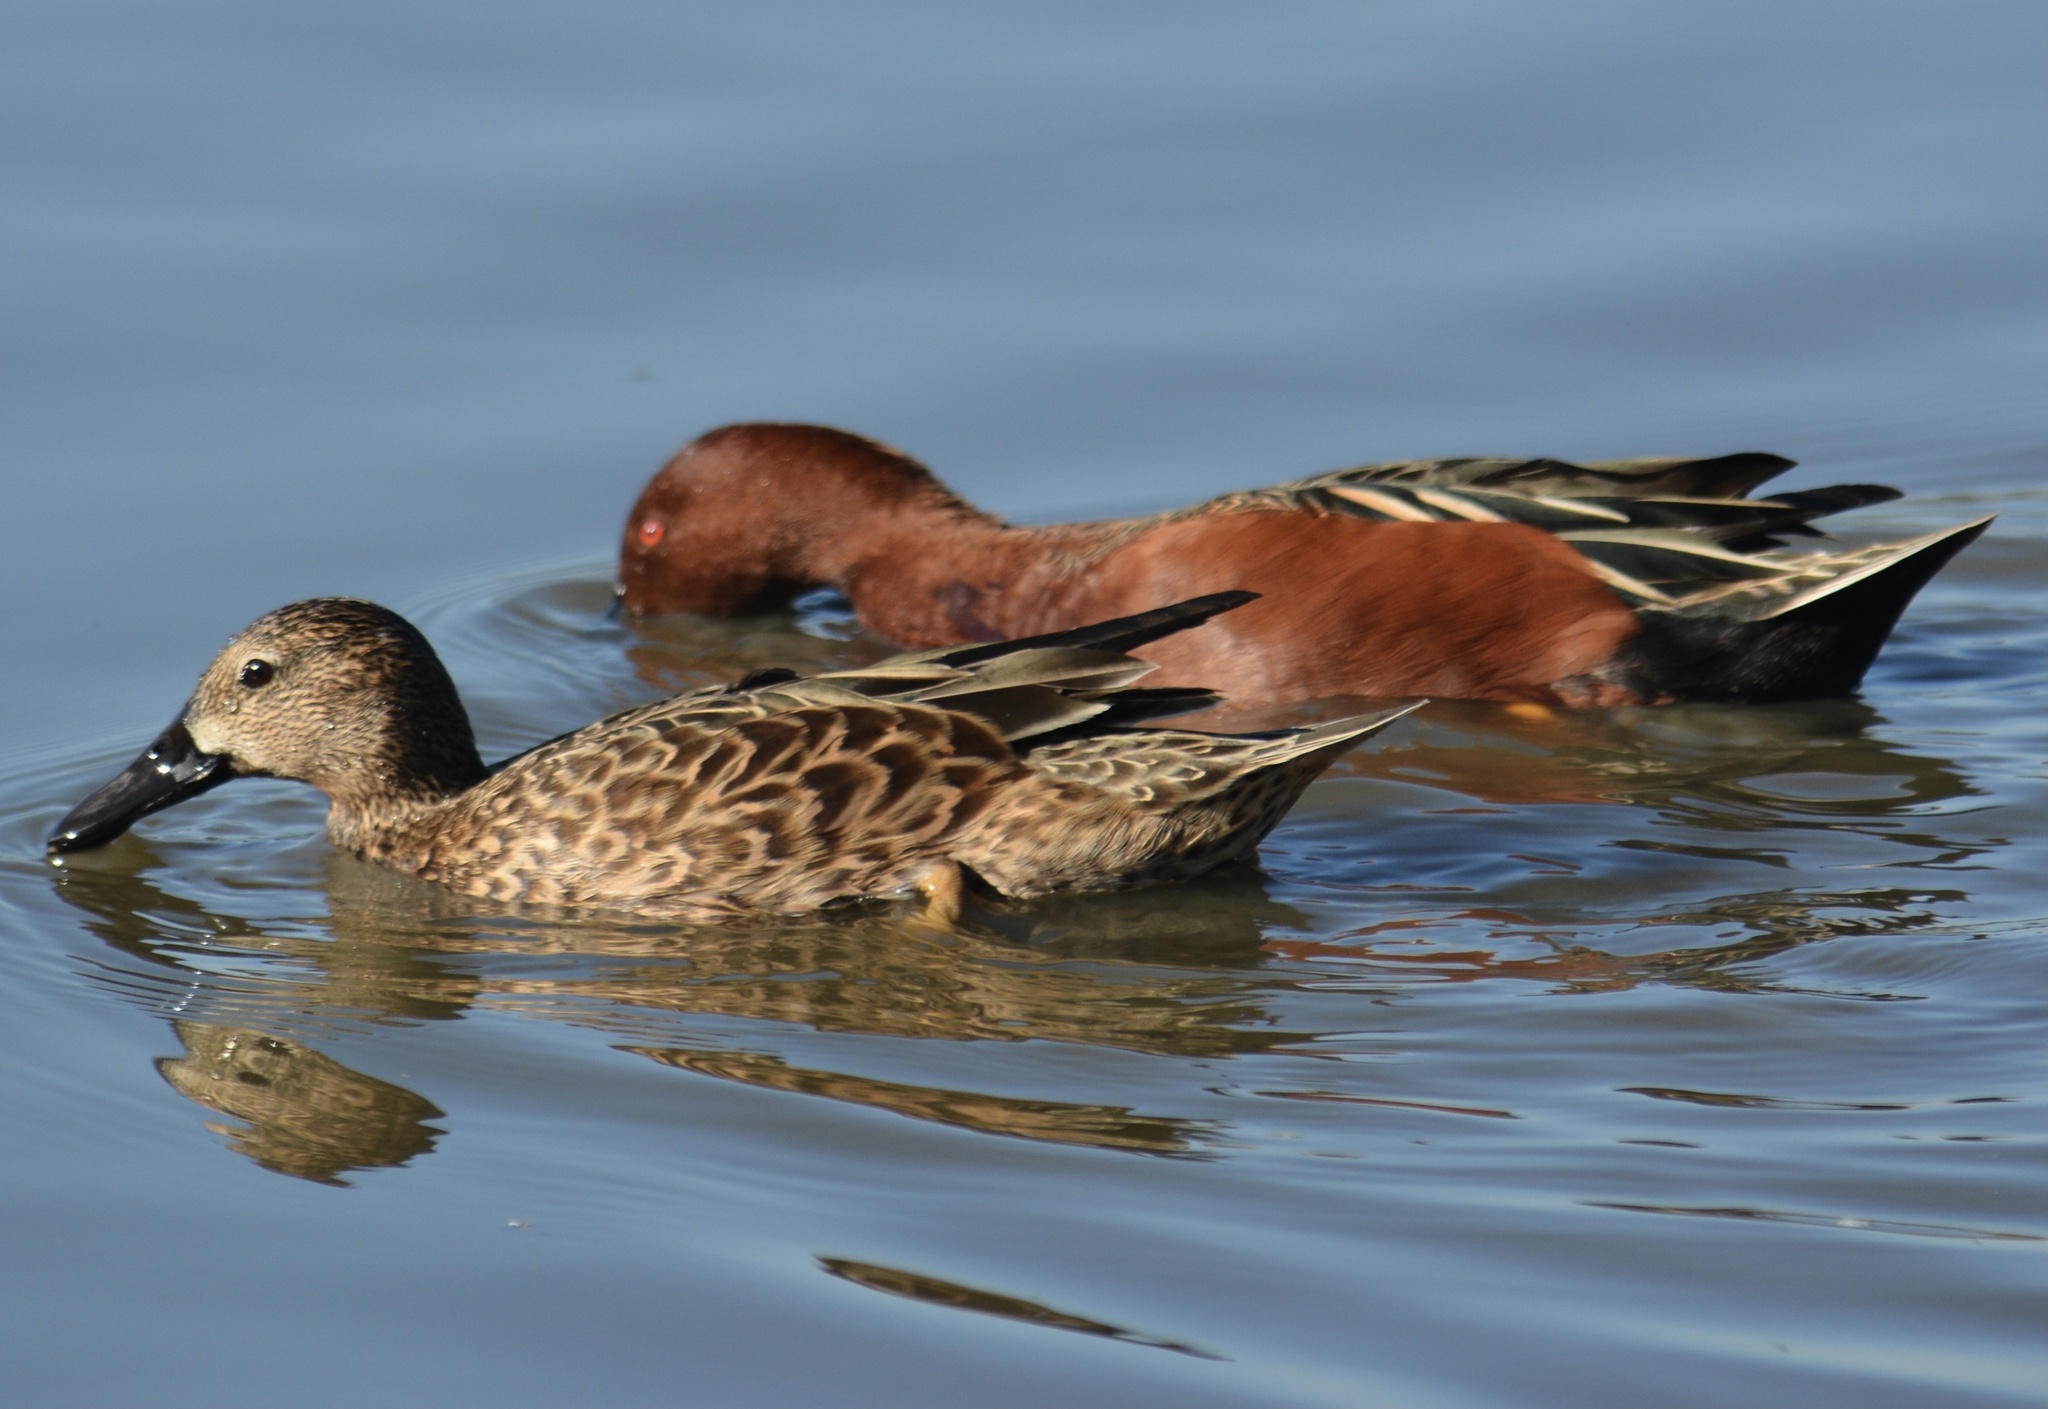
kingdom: Animalia
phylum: Chordata
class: Aves
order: Anseriformes
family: Anatidae
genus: Spatula
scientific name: Spatula cyanoptera
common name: Cinnamon teal
